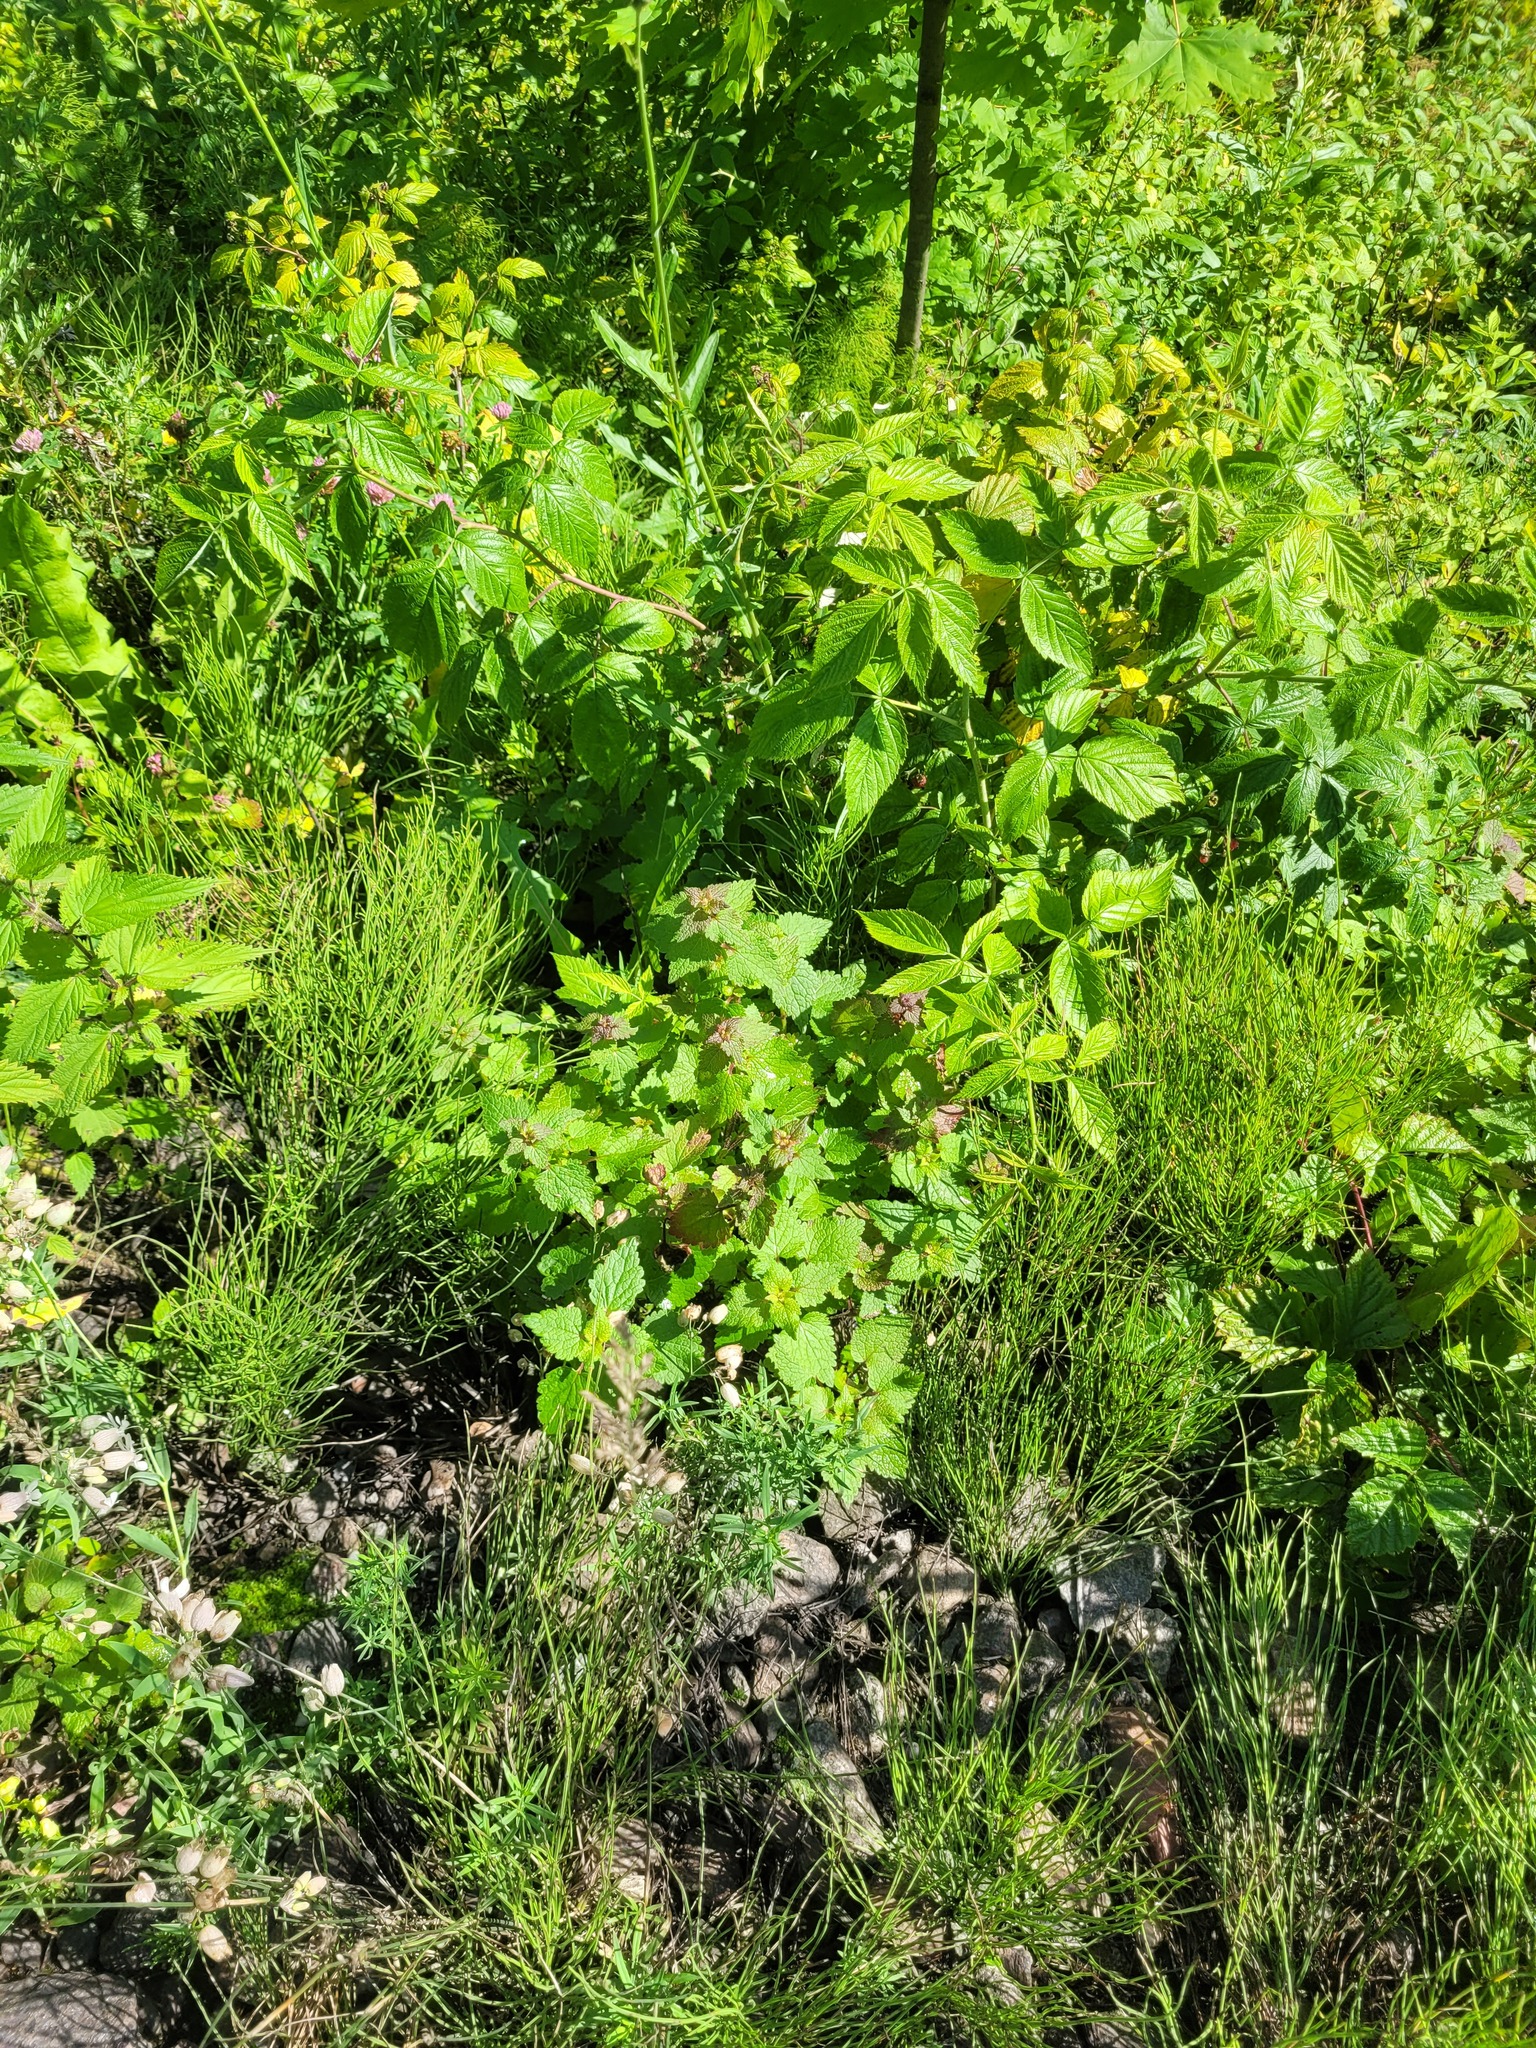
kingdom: Plantae
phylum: Tracheophyta
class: Magnoliopsida
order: Lamiales
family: Lamiaceae
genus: Lamium
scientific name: Lamium maculatum
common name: Spotted dead-nettle
